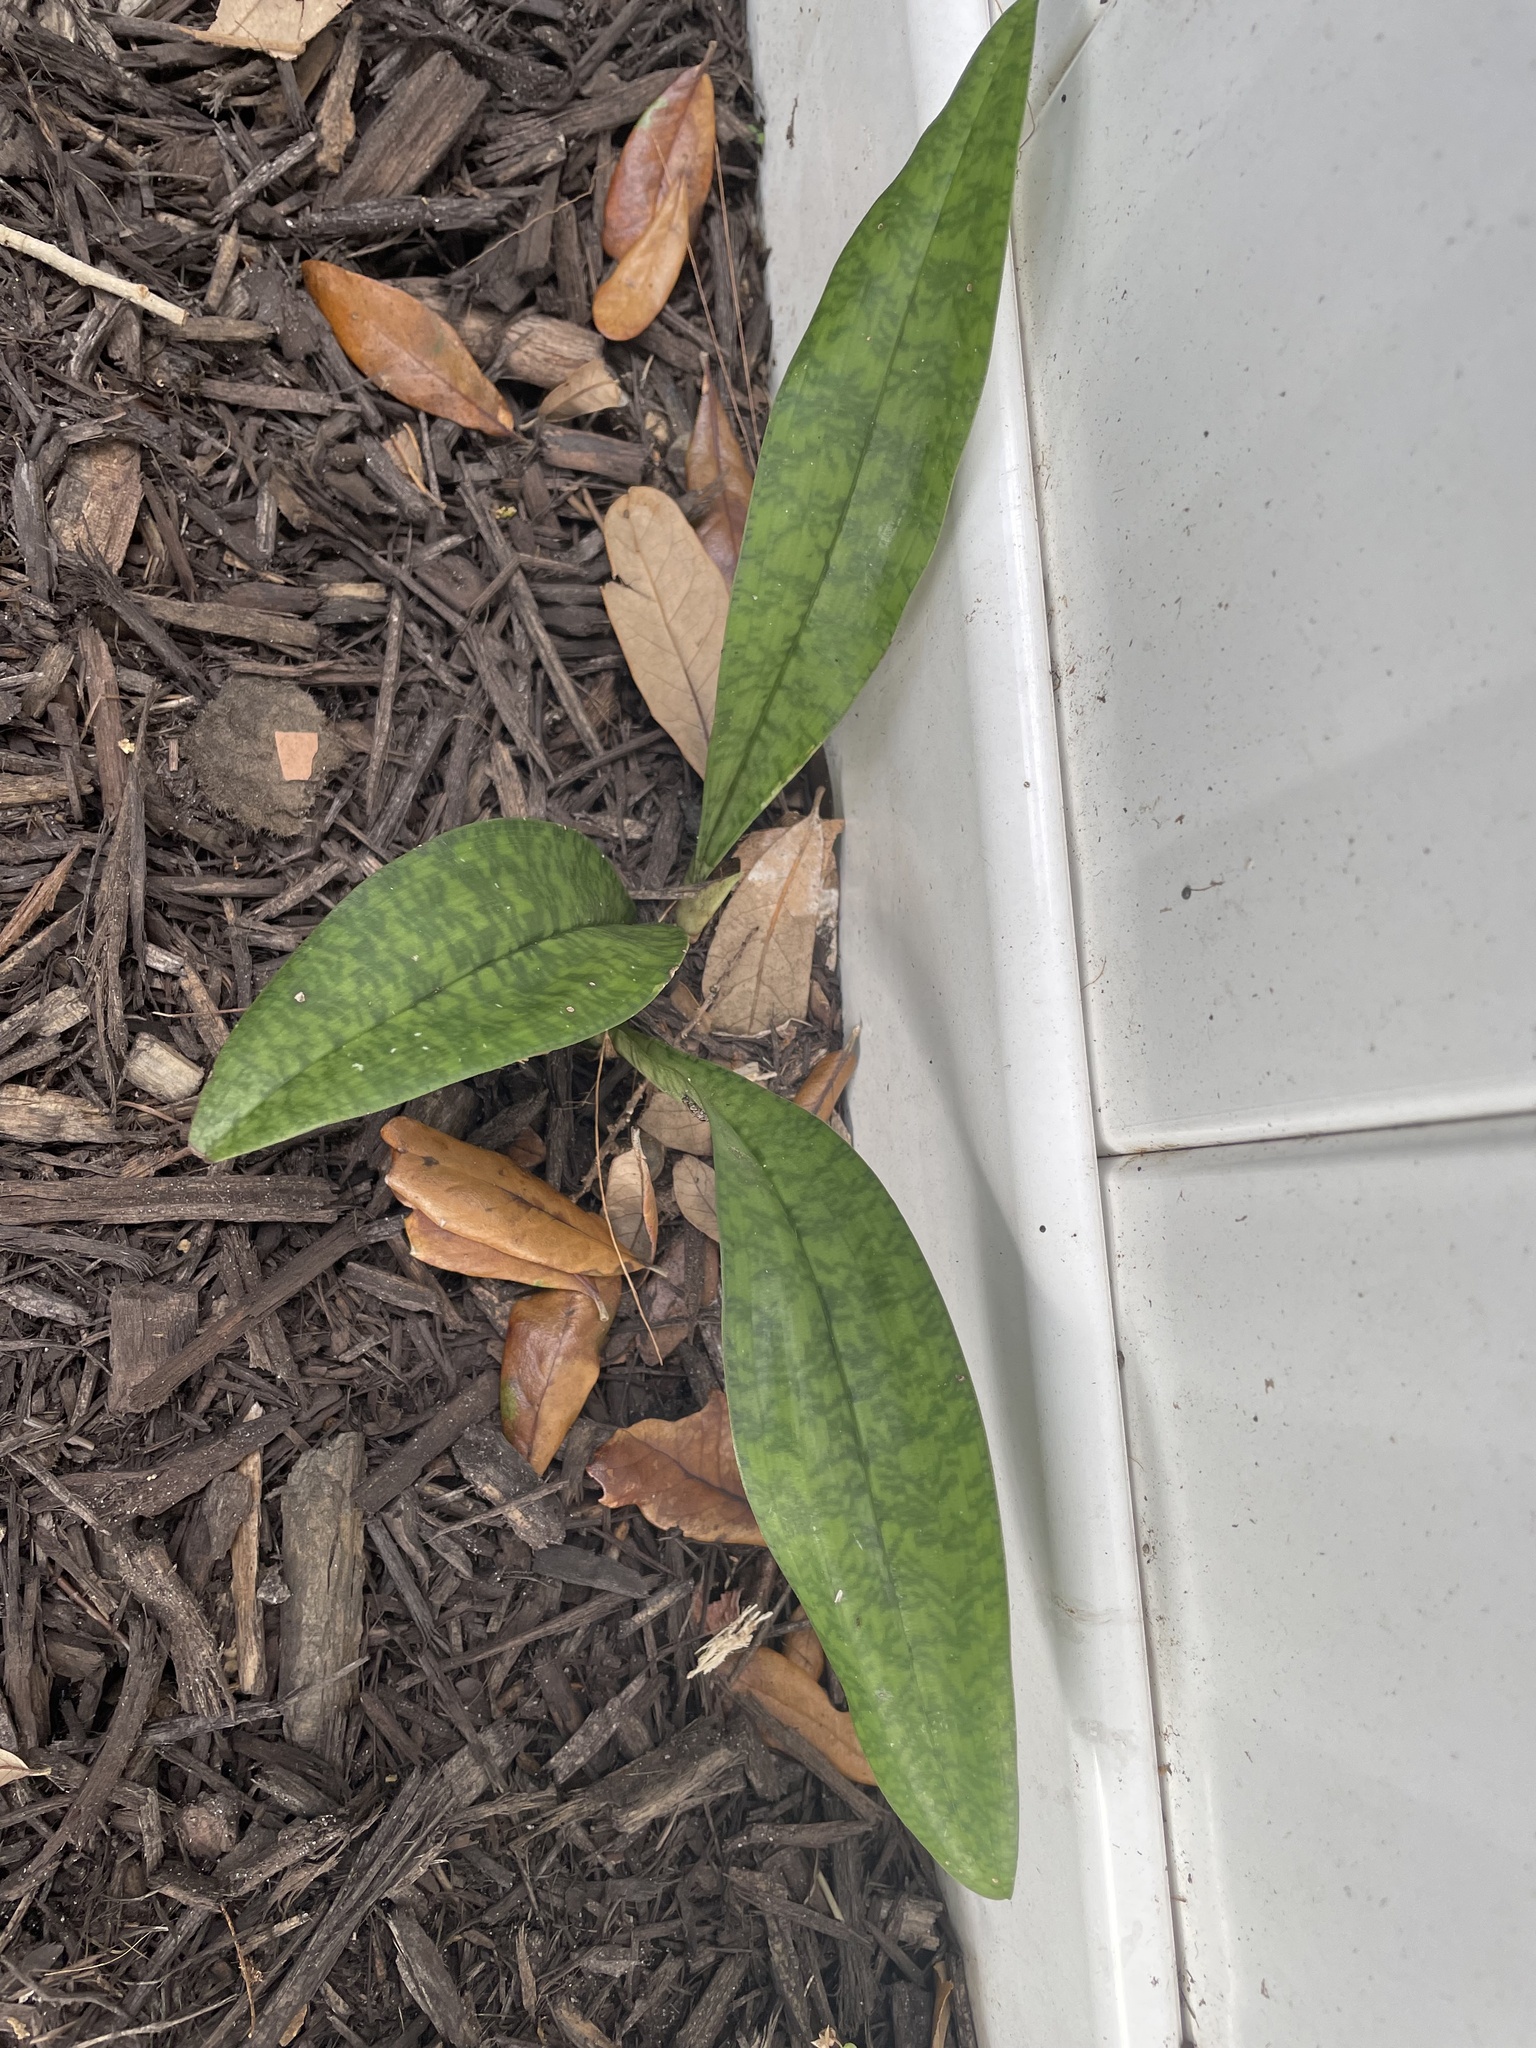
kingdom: Plantae
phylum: Tracheophyta
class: Liliopsida
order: Asparagales
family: Orchidaceae
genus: Eulophia
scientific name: Eulophia maculata
